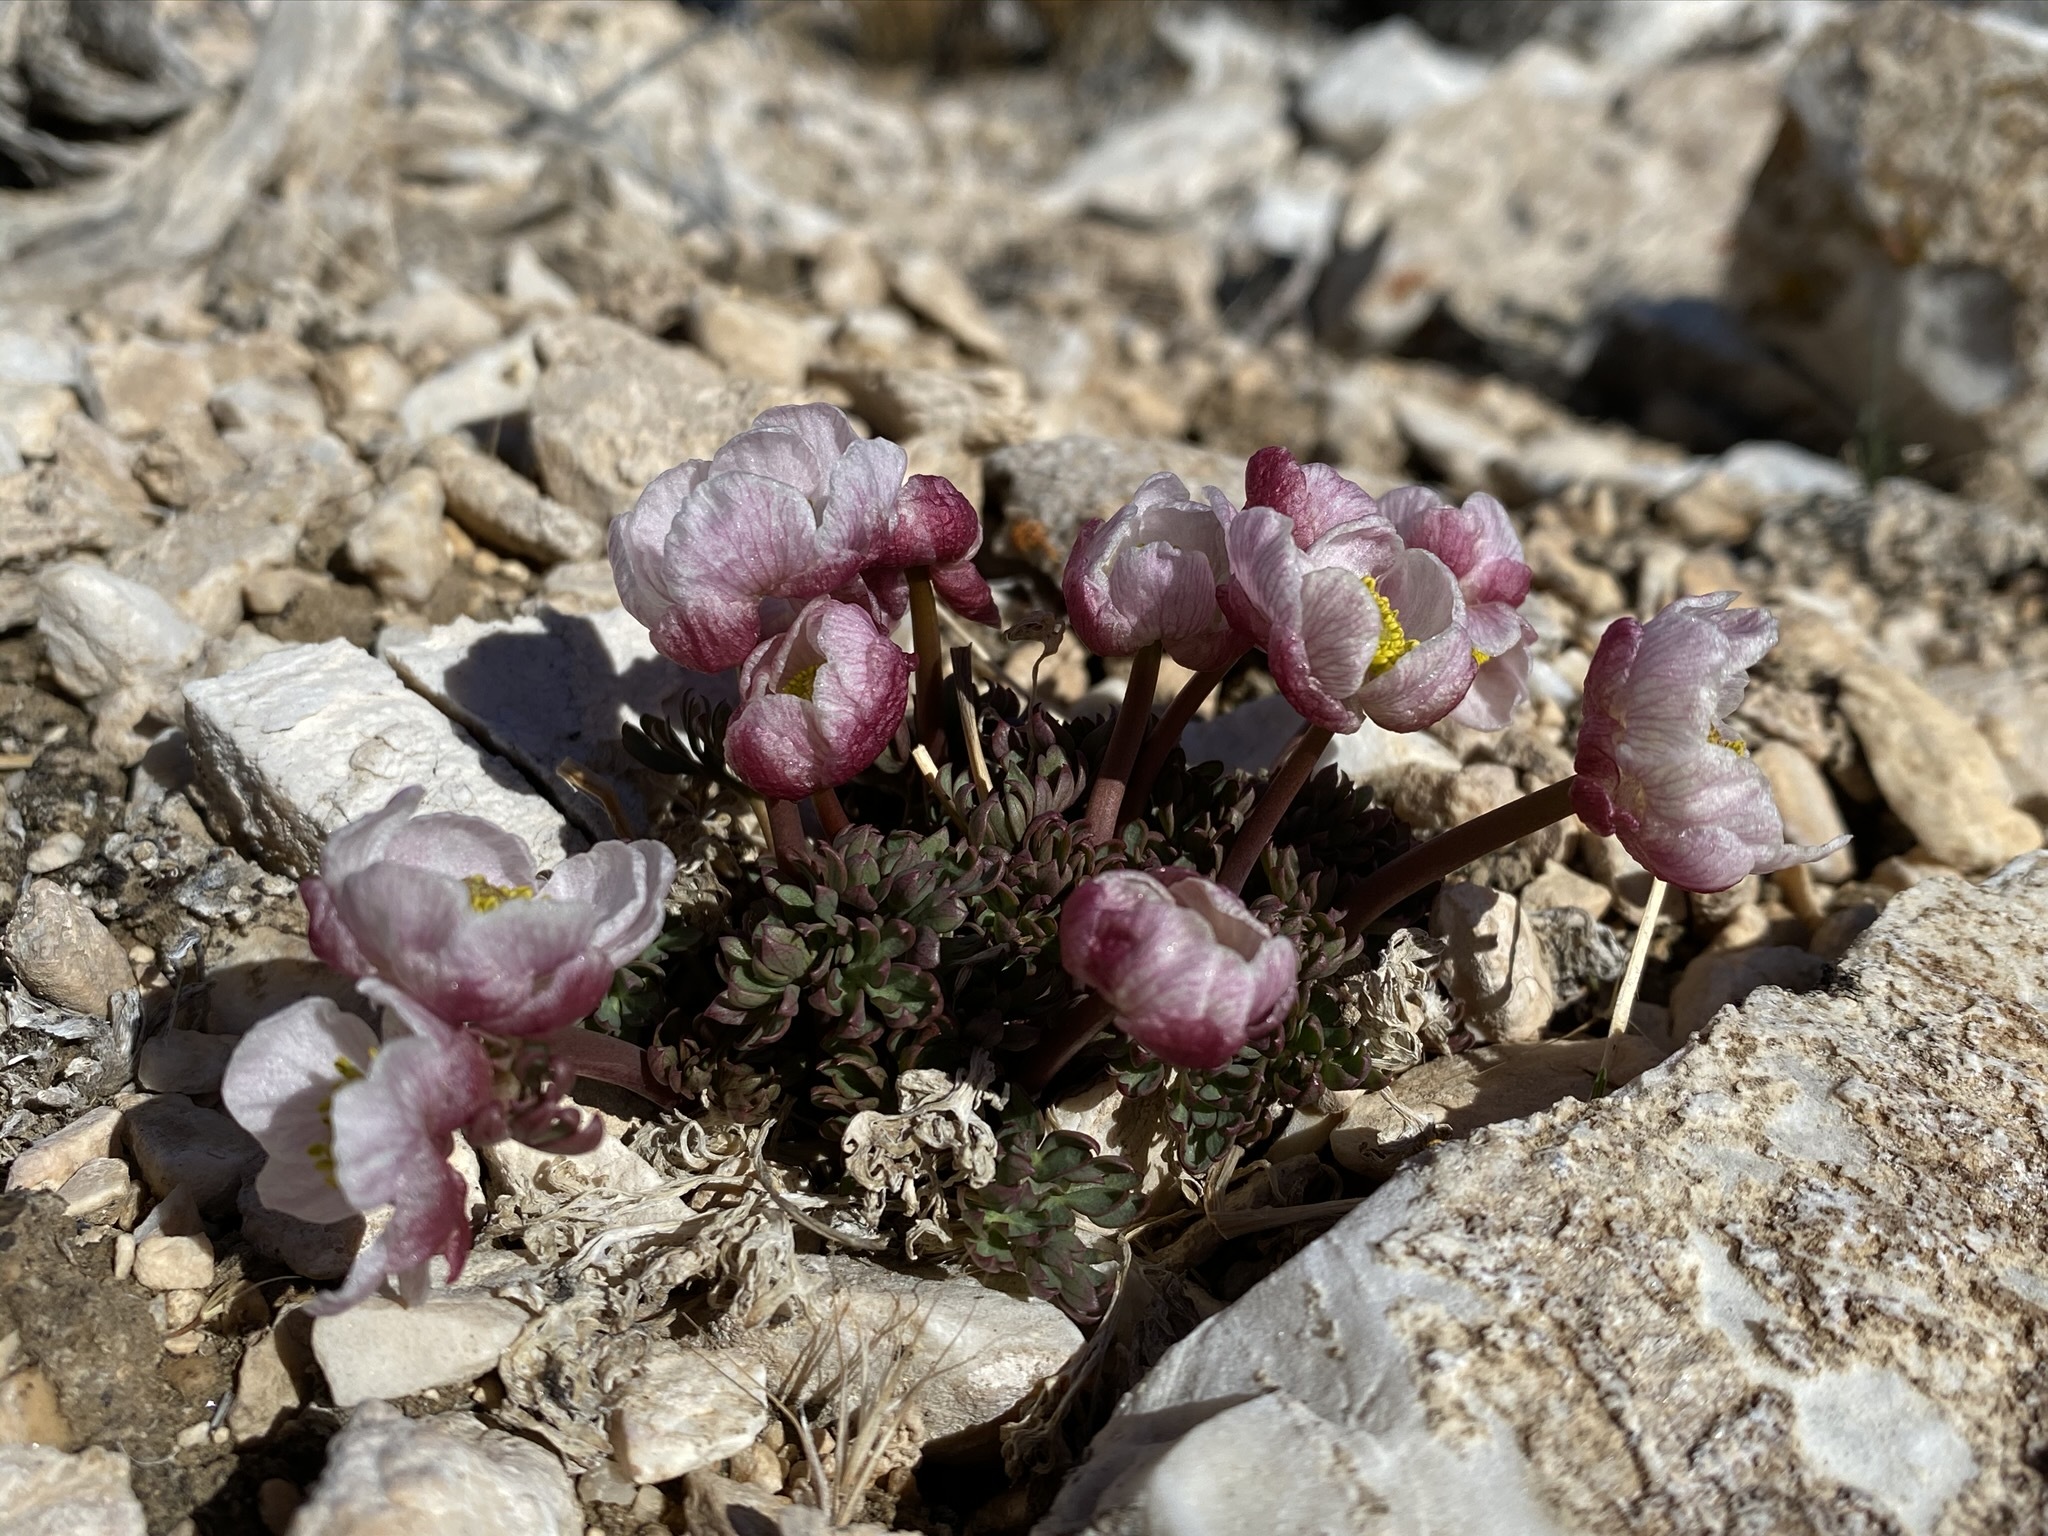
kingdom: Plantae
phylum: Tracheophyta
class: Magnoliopsida
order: Ranunculales
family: Ranunculaceae
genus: Beckwithia
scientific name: Beckwithia andersonii
